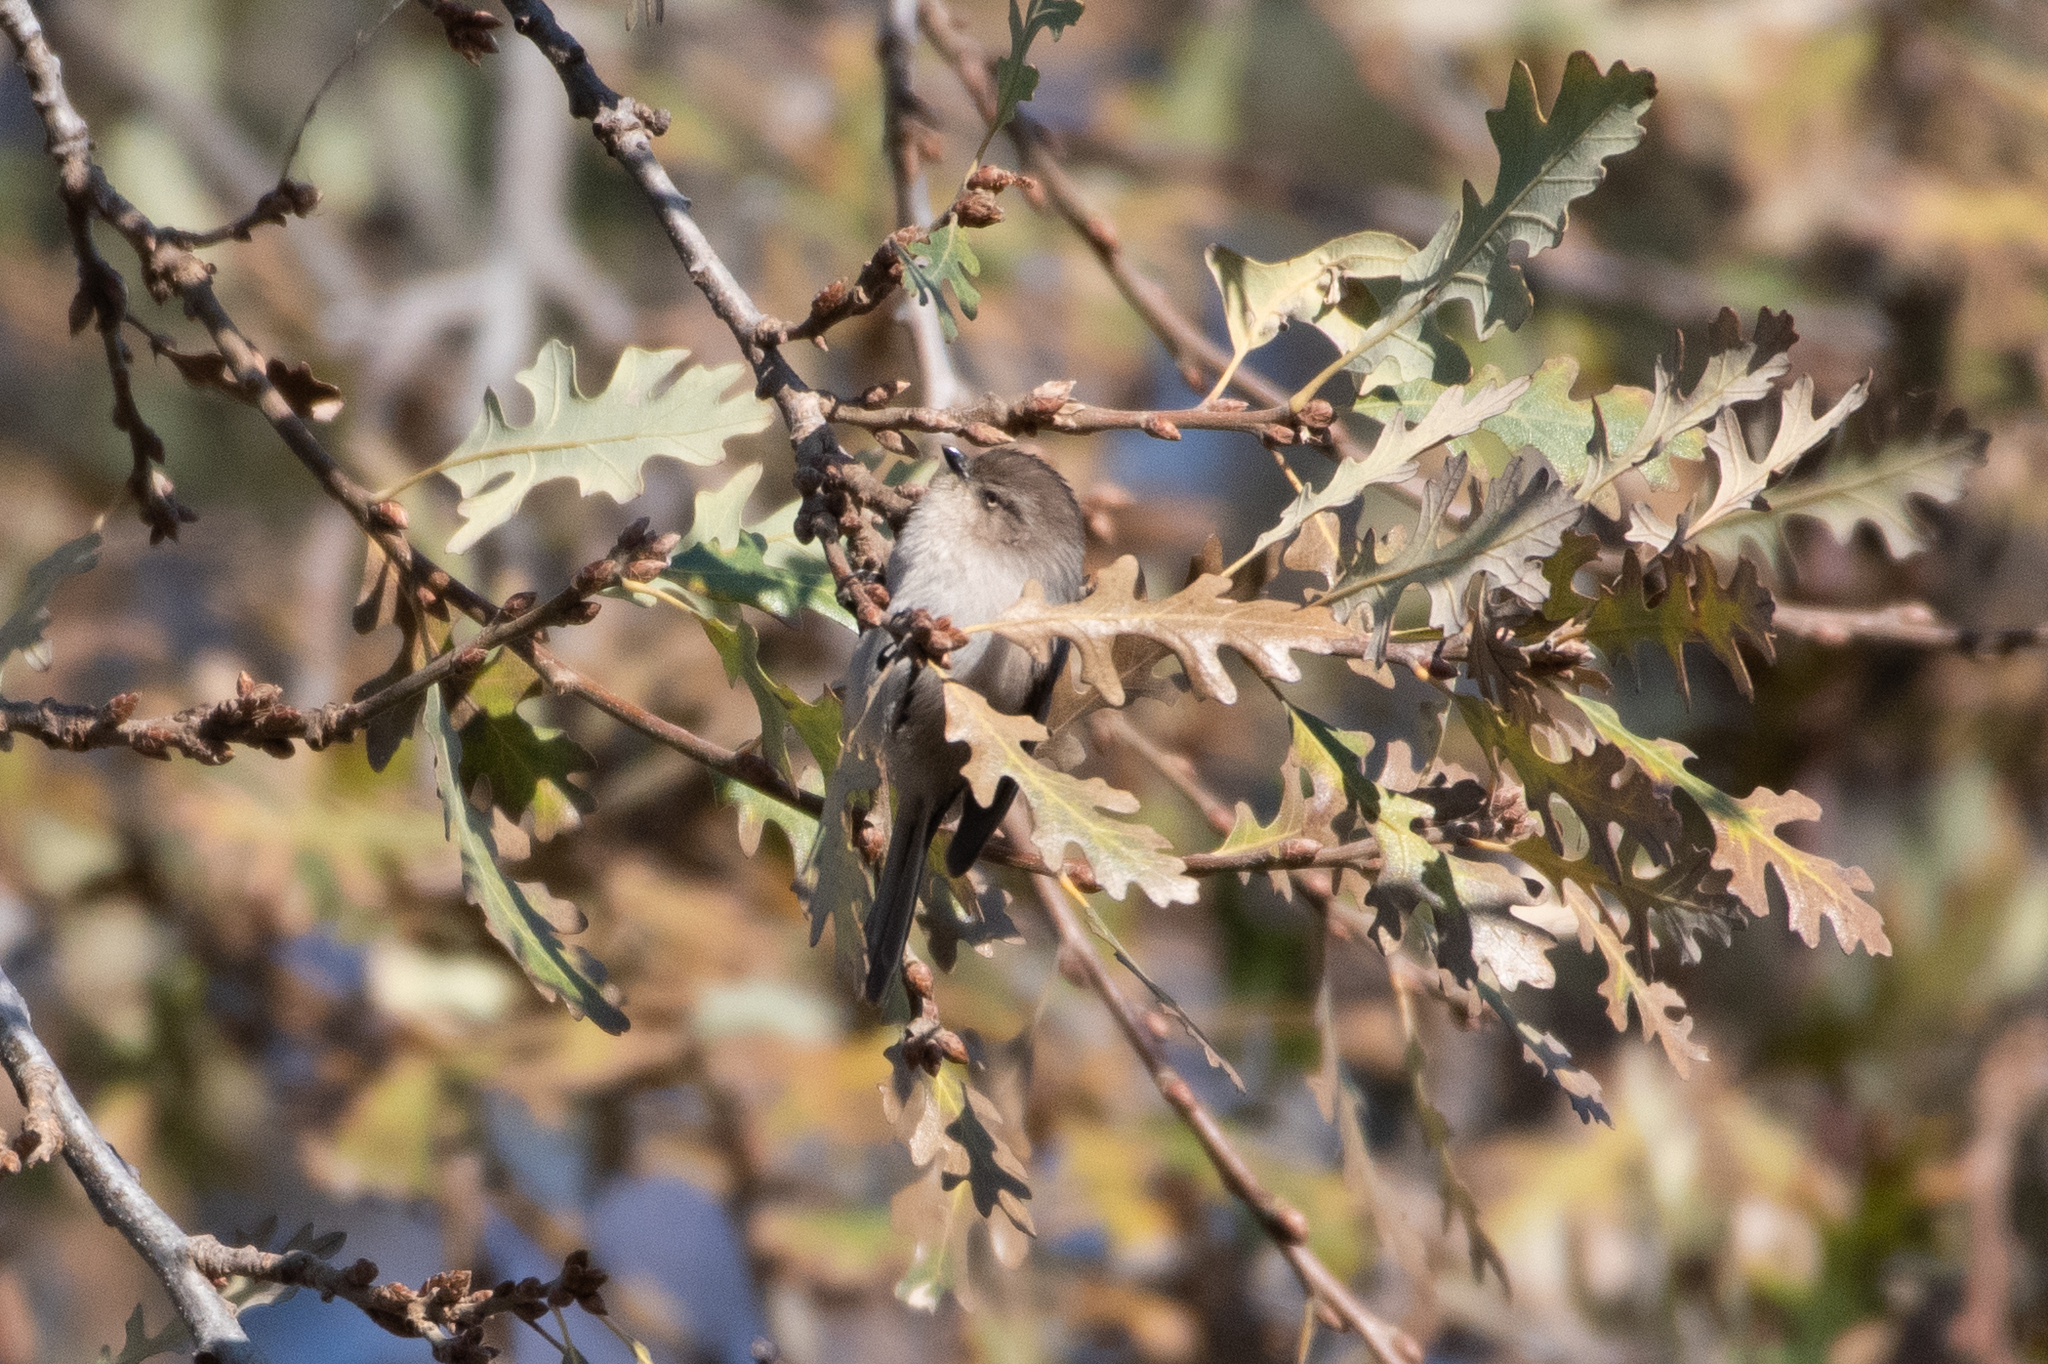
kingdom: Animalia
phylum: Chordata
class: Aves
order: Passeriformes
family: Aegithalidae
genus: Psaltriparus
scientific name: Psaltriparus minimus
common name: American bushtit
